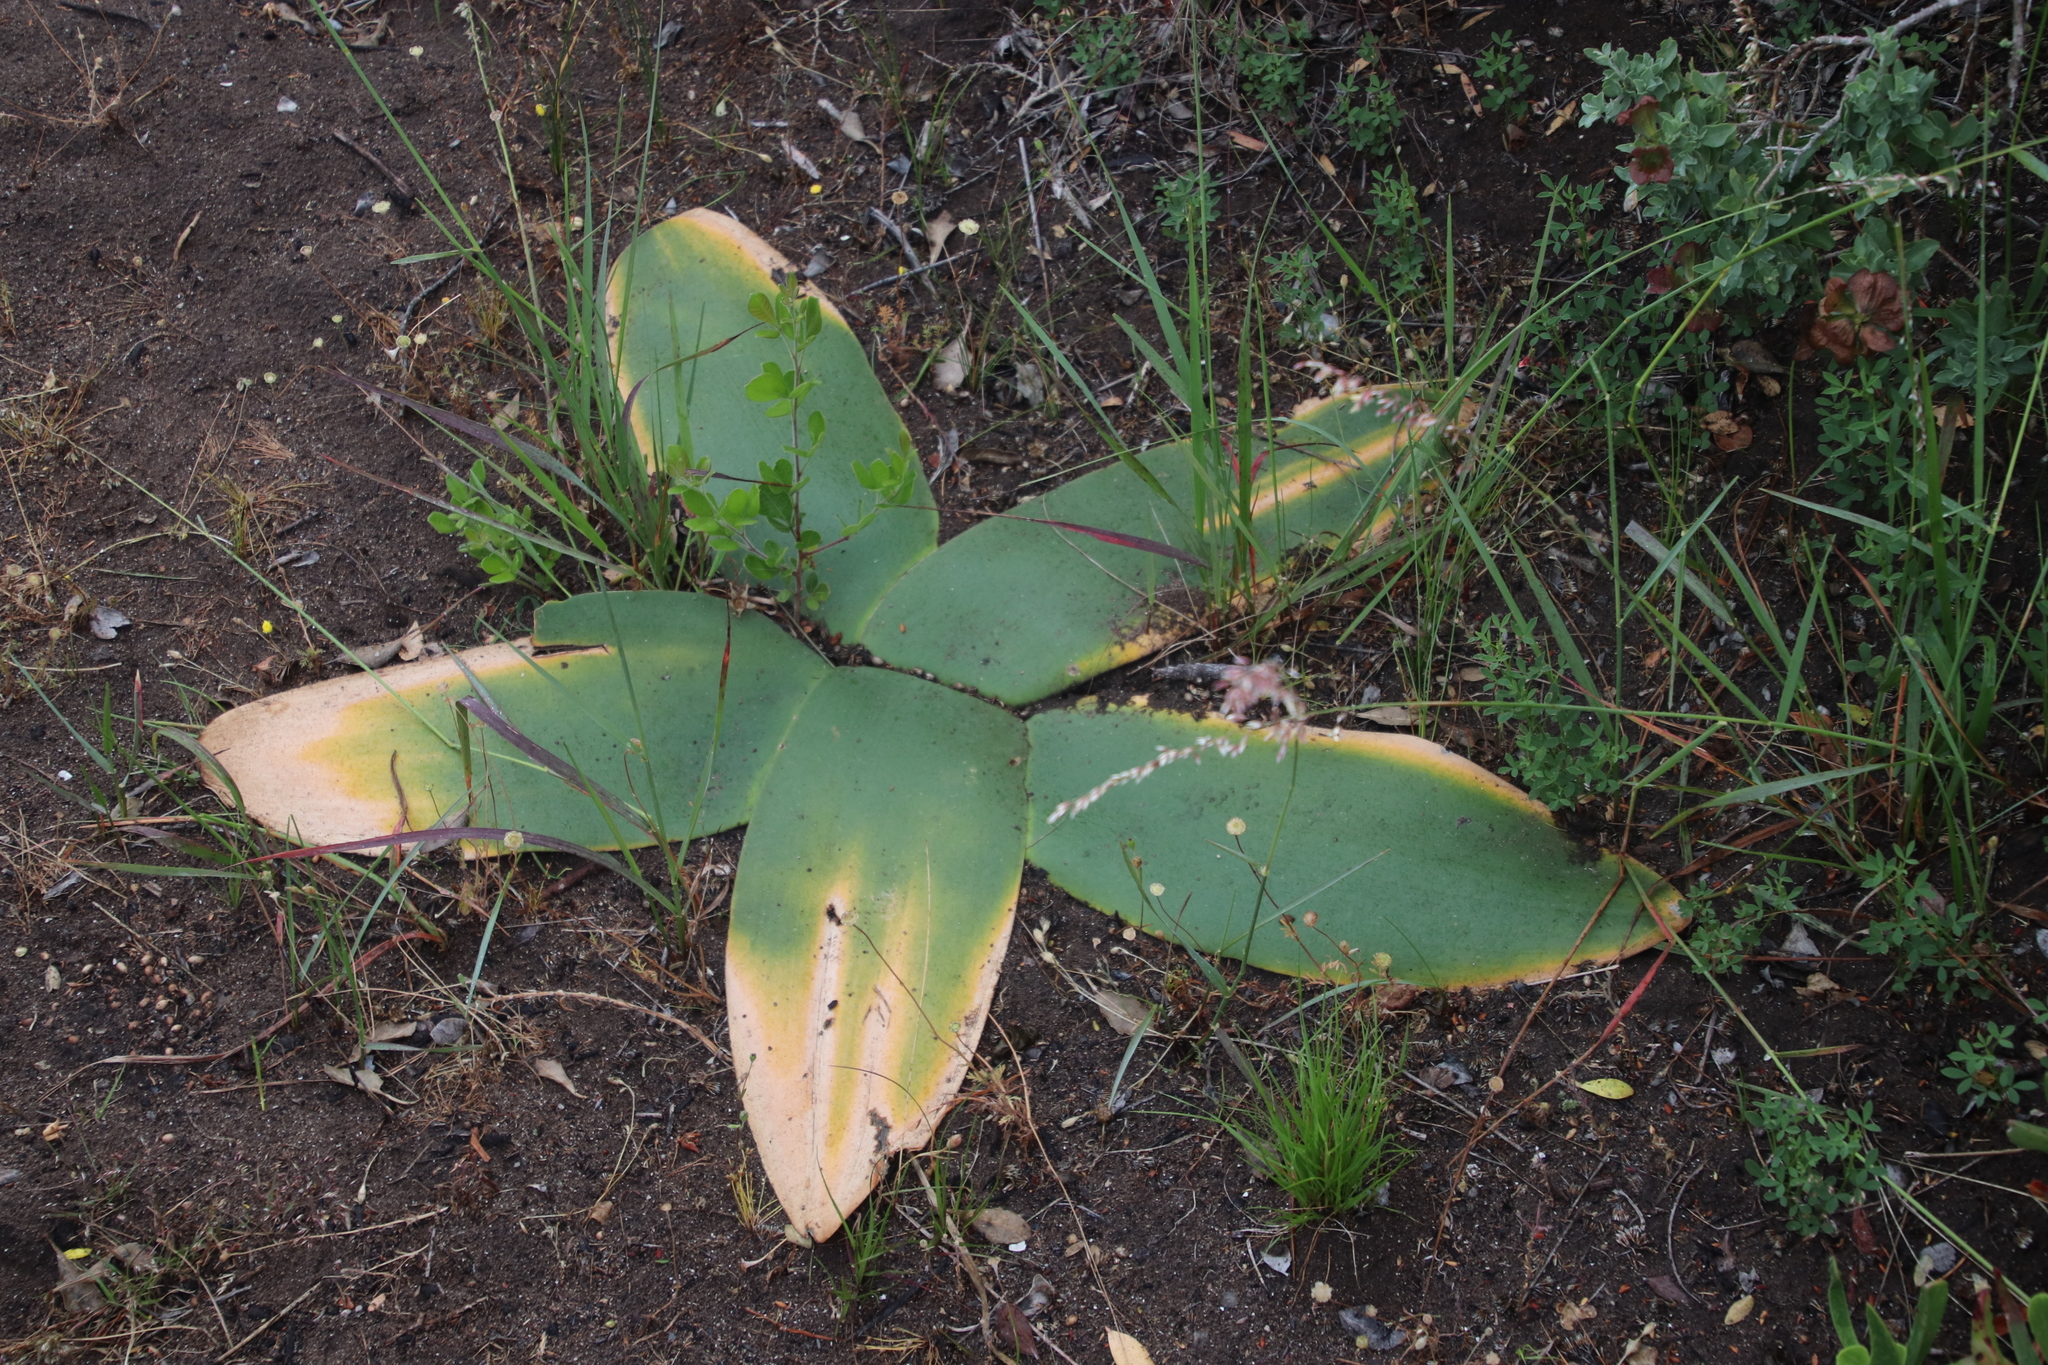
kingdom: Plantae
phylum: Tracheophyta
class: Liliopsida
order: Asparagales
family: Amaryllidaceae
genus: Brunsvigia
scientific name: Brunsvigia orientalis
